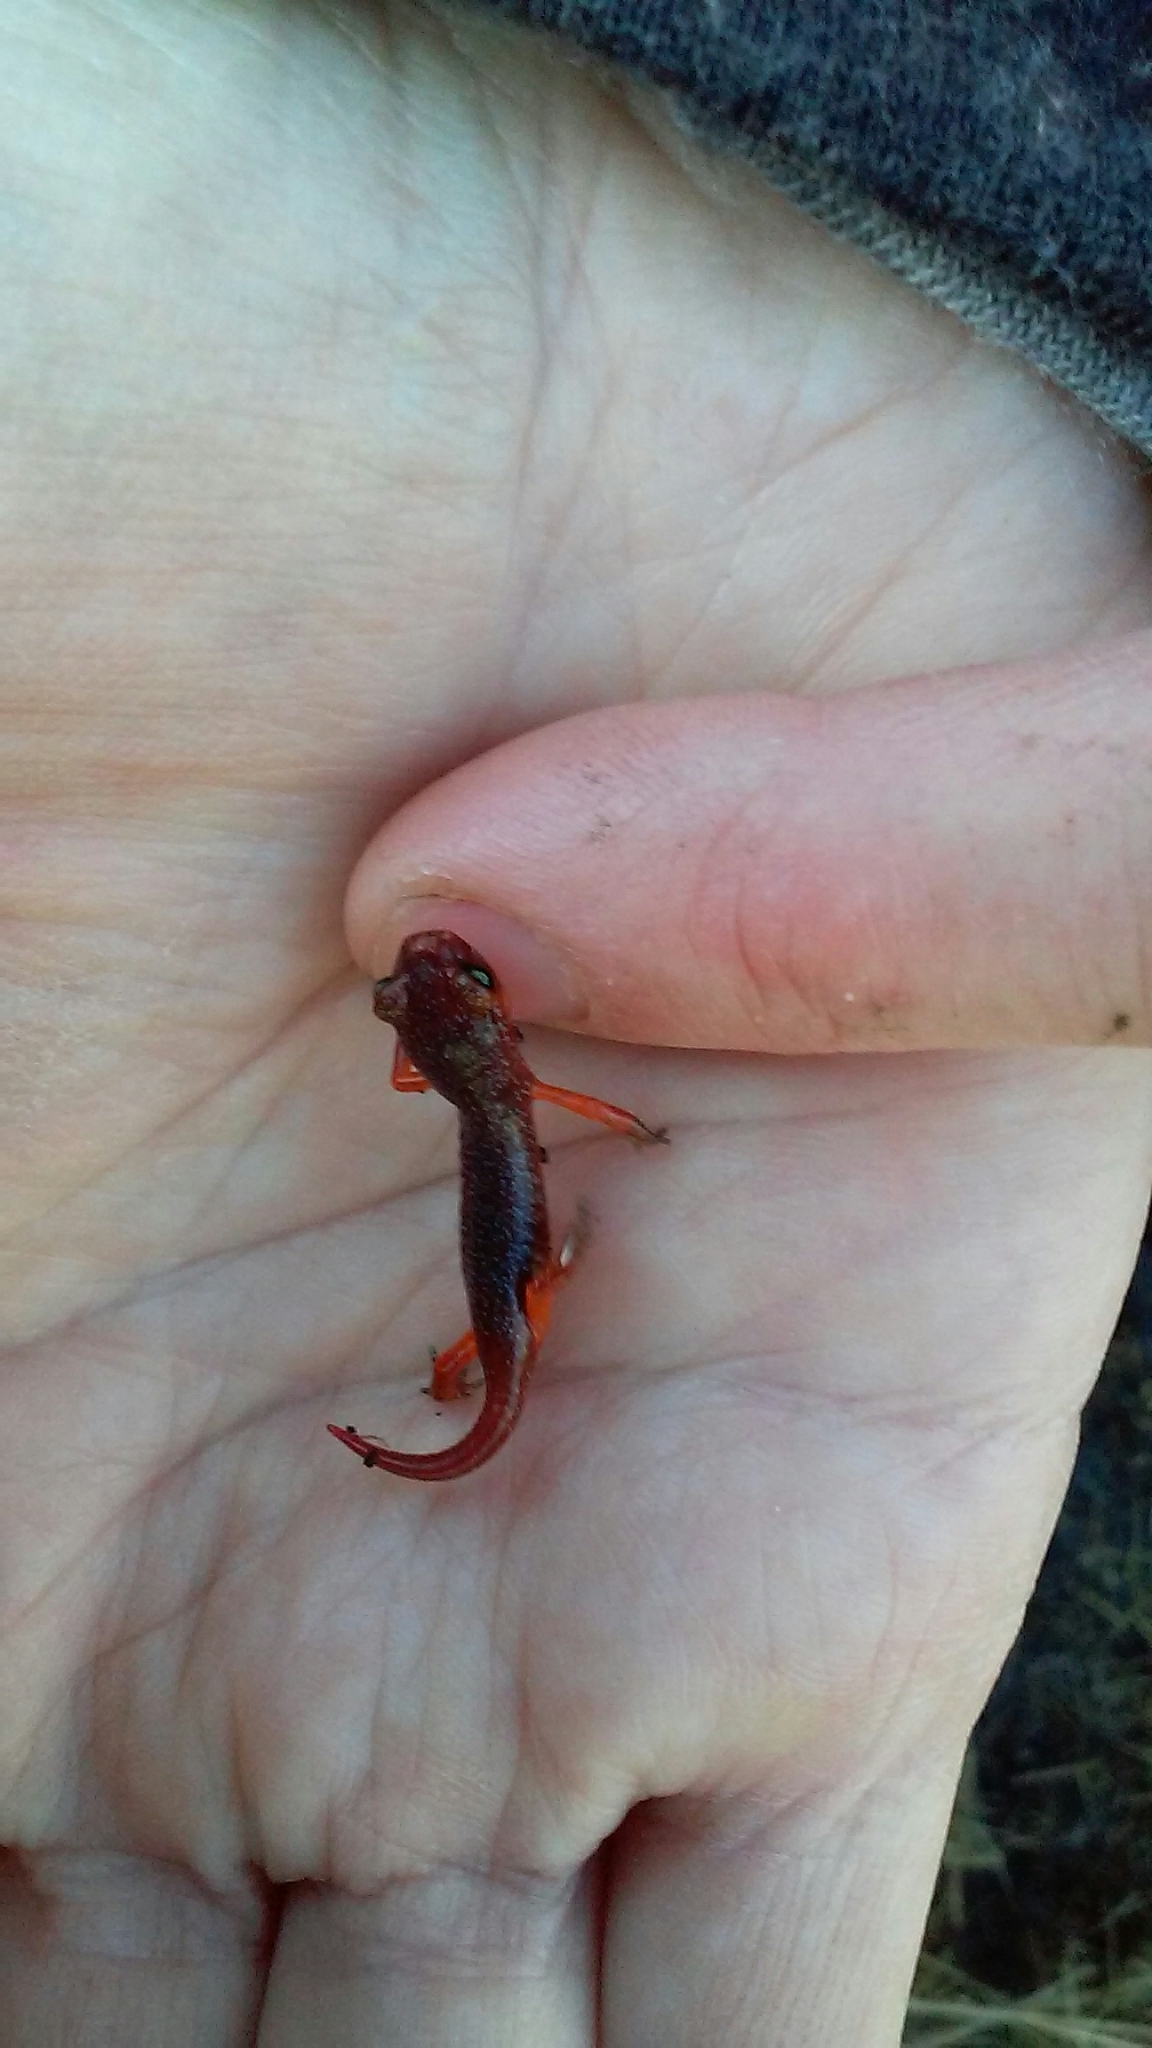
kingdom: Animalia
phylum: Chordata
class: Amphibia
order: Caudata
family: Plethodontidae
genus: Ensatina
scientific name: Ensatina eschscholtzii
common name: Ensatina
